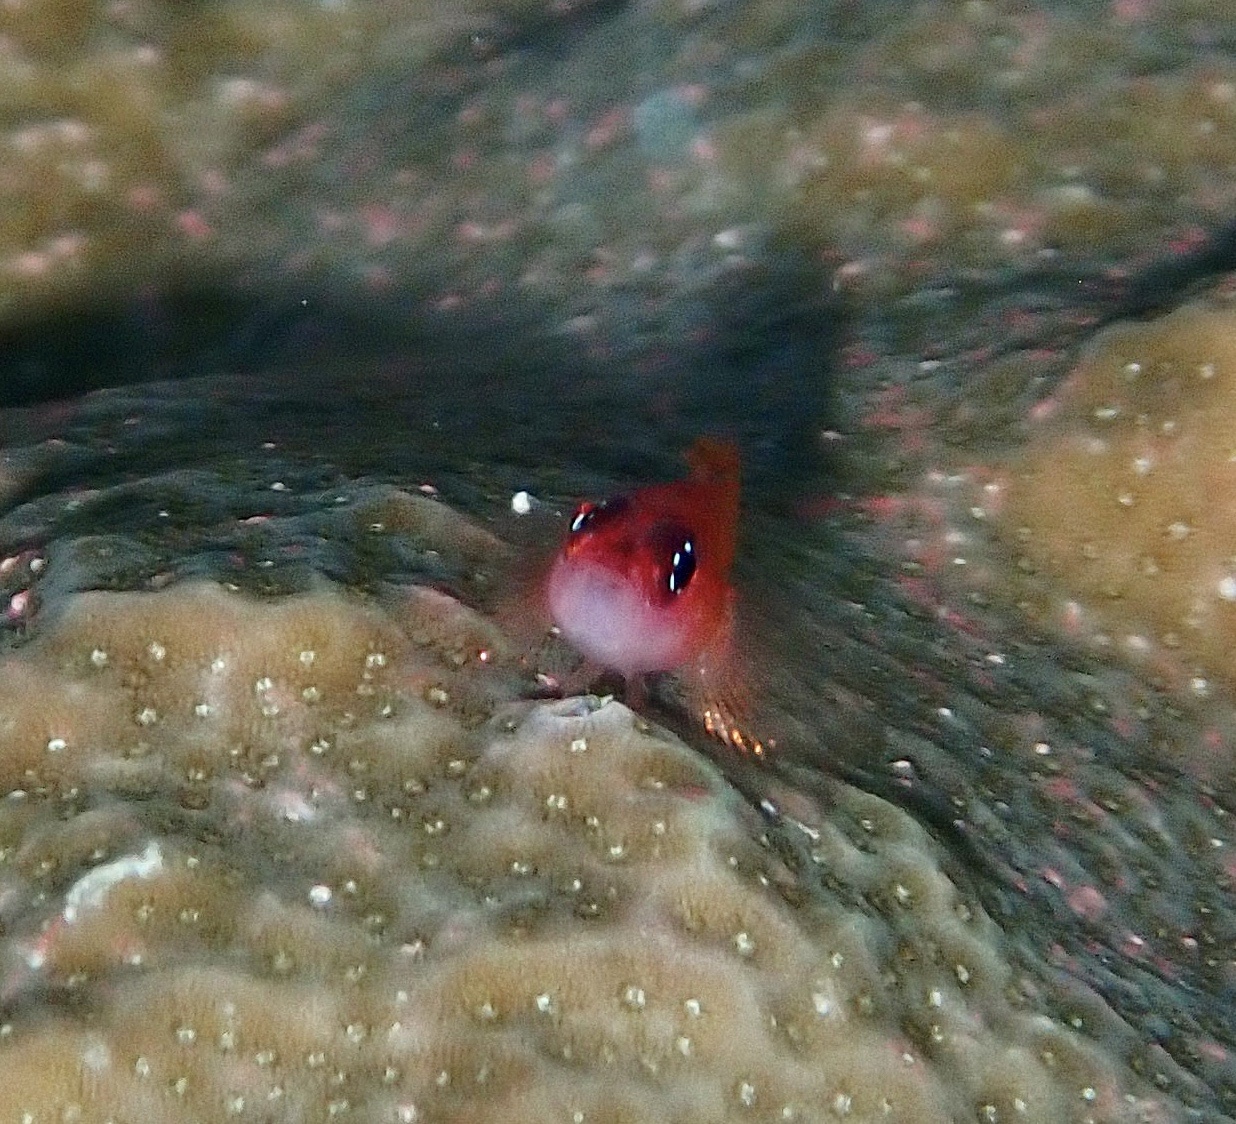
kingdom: Animalia
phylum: Chordata
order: Perciformes
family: Gobiidae
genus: Trimma
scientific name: Trimma avidori
